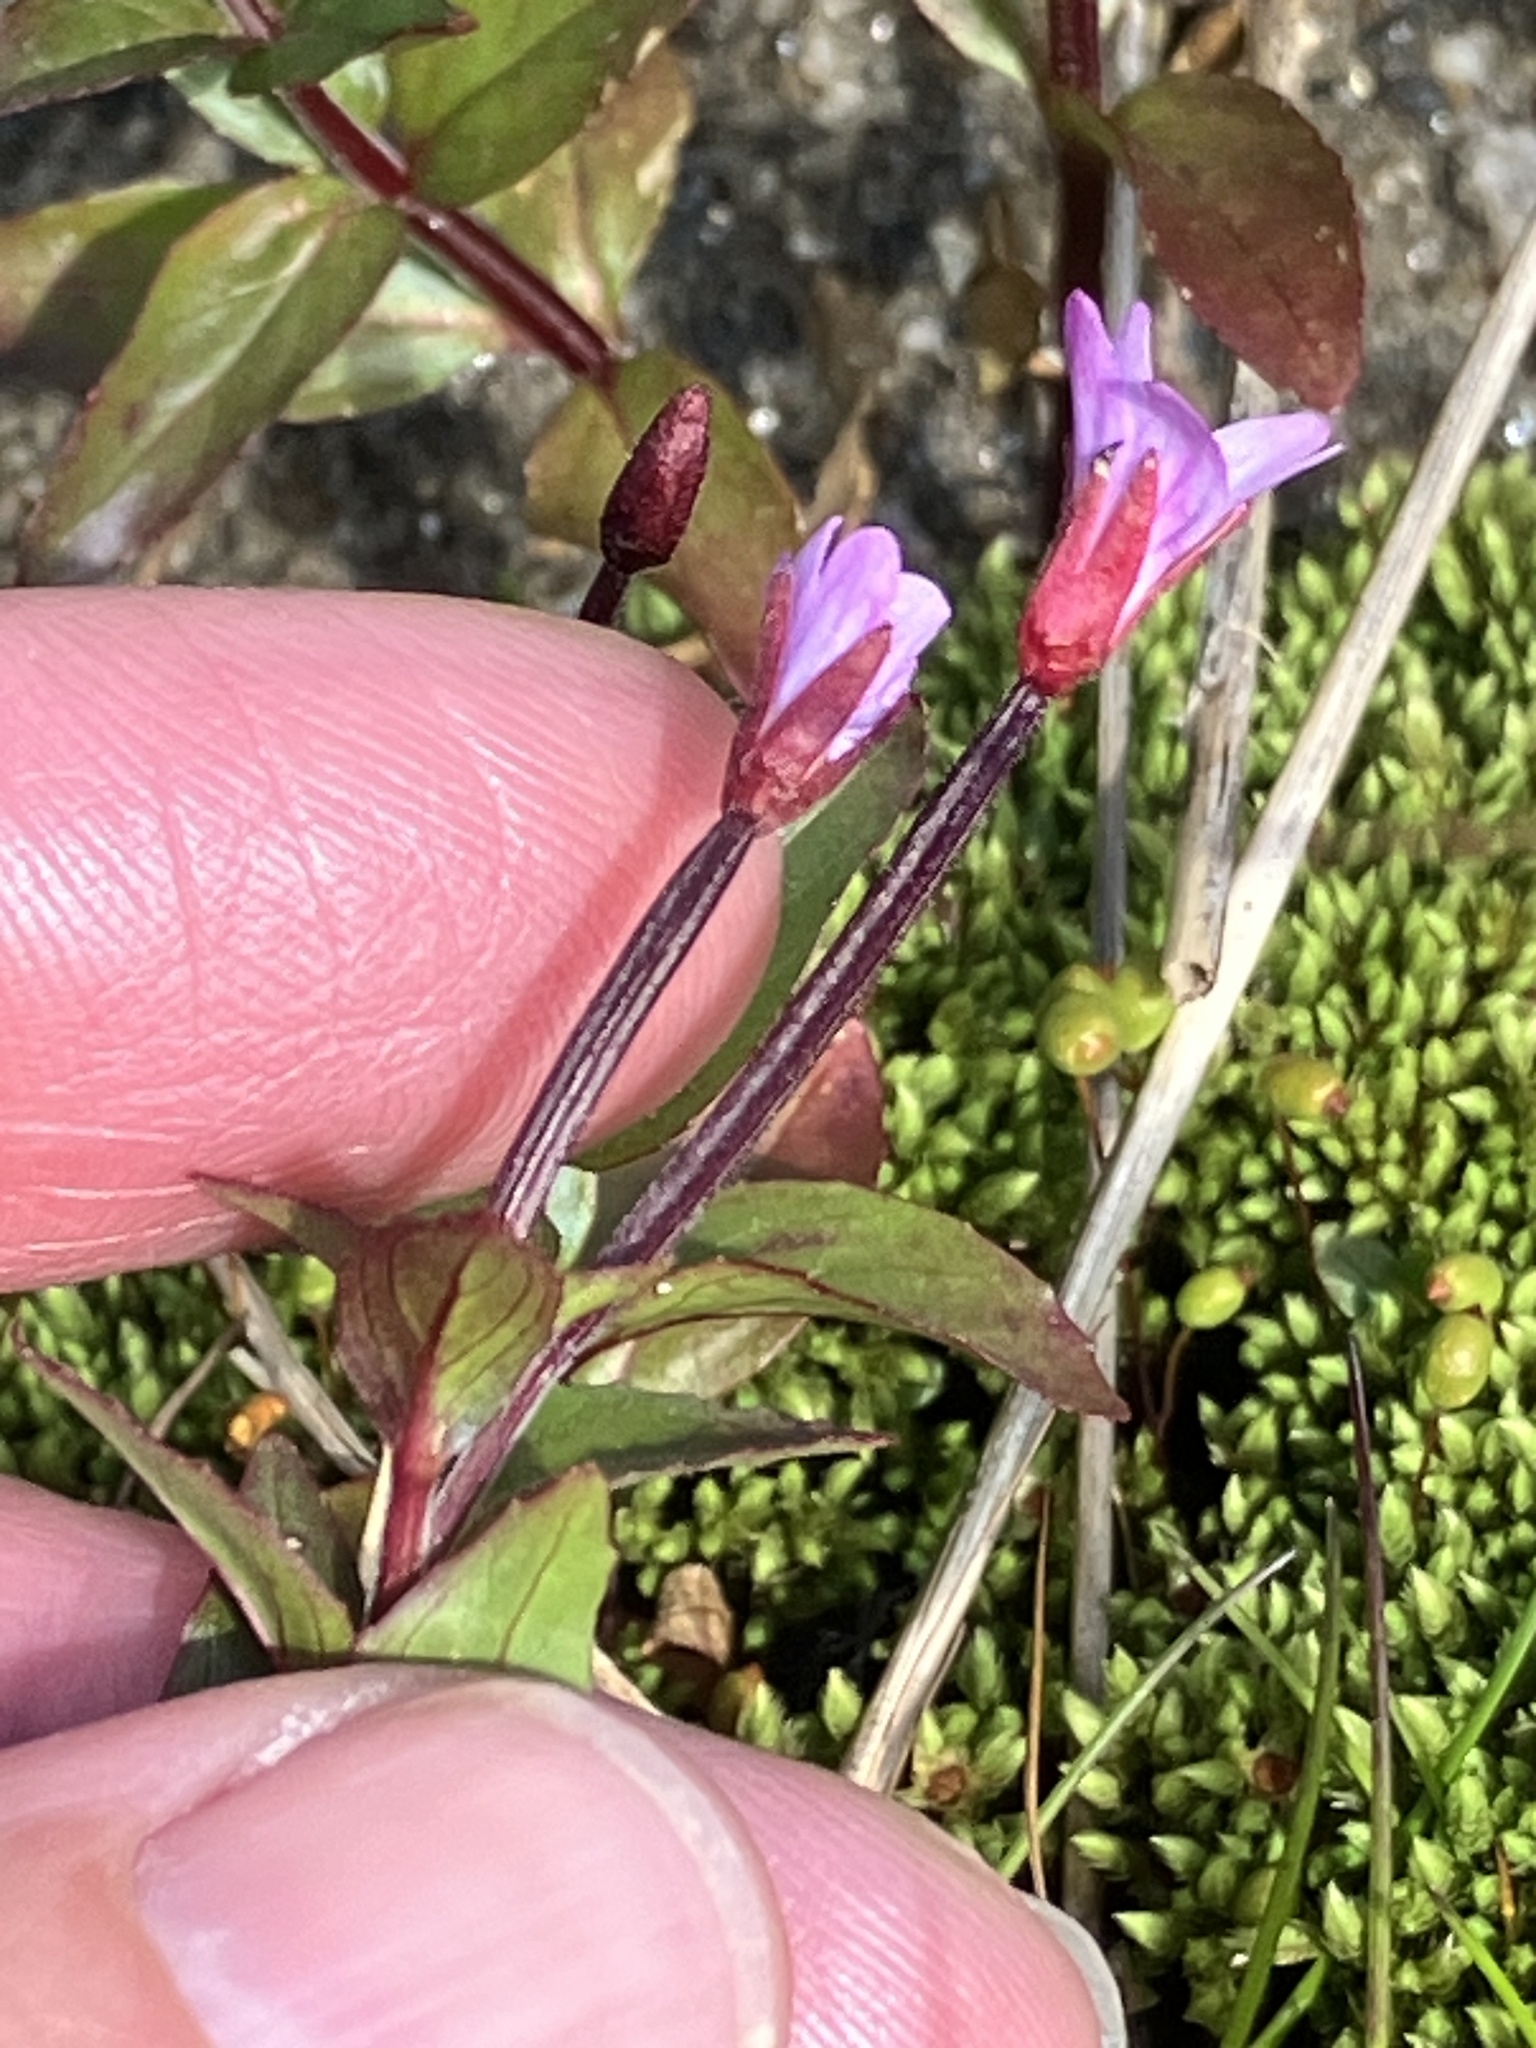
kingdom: Plantae
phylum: Tracheophyta
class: Magnoliopsida
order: Myrtales
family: Onagraceae
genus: Epilobium
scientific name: Epilobium alsinifolium
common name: Chickweed willowherb
